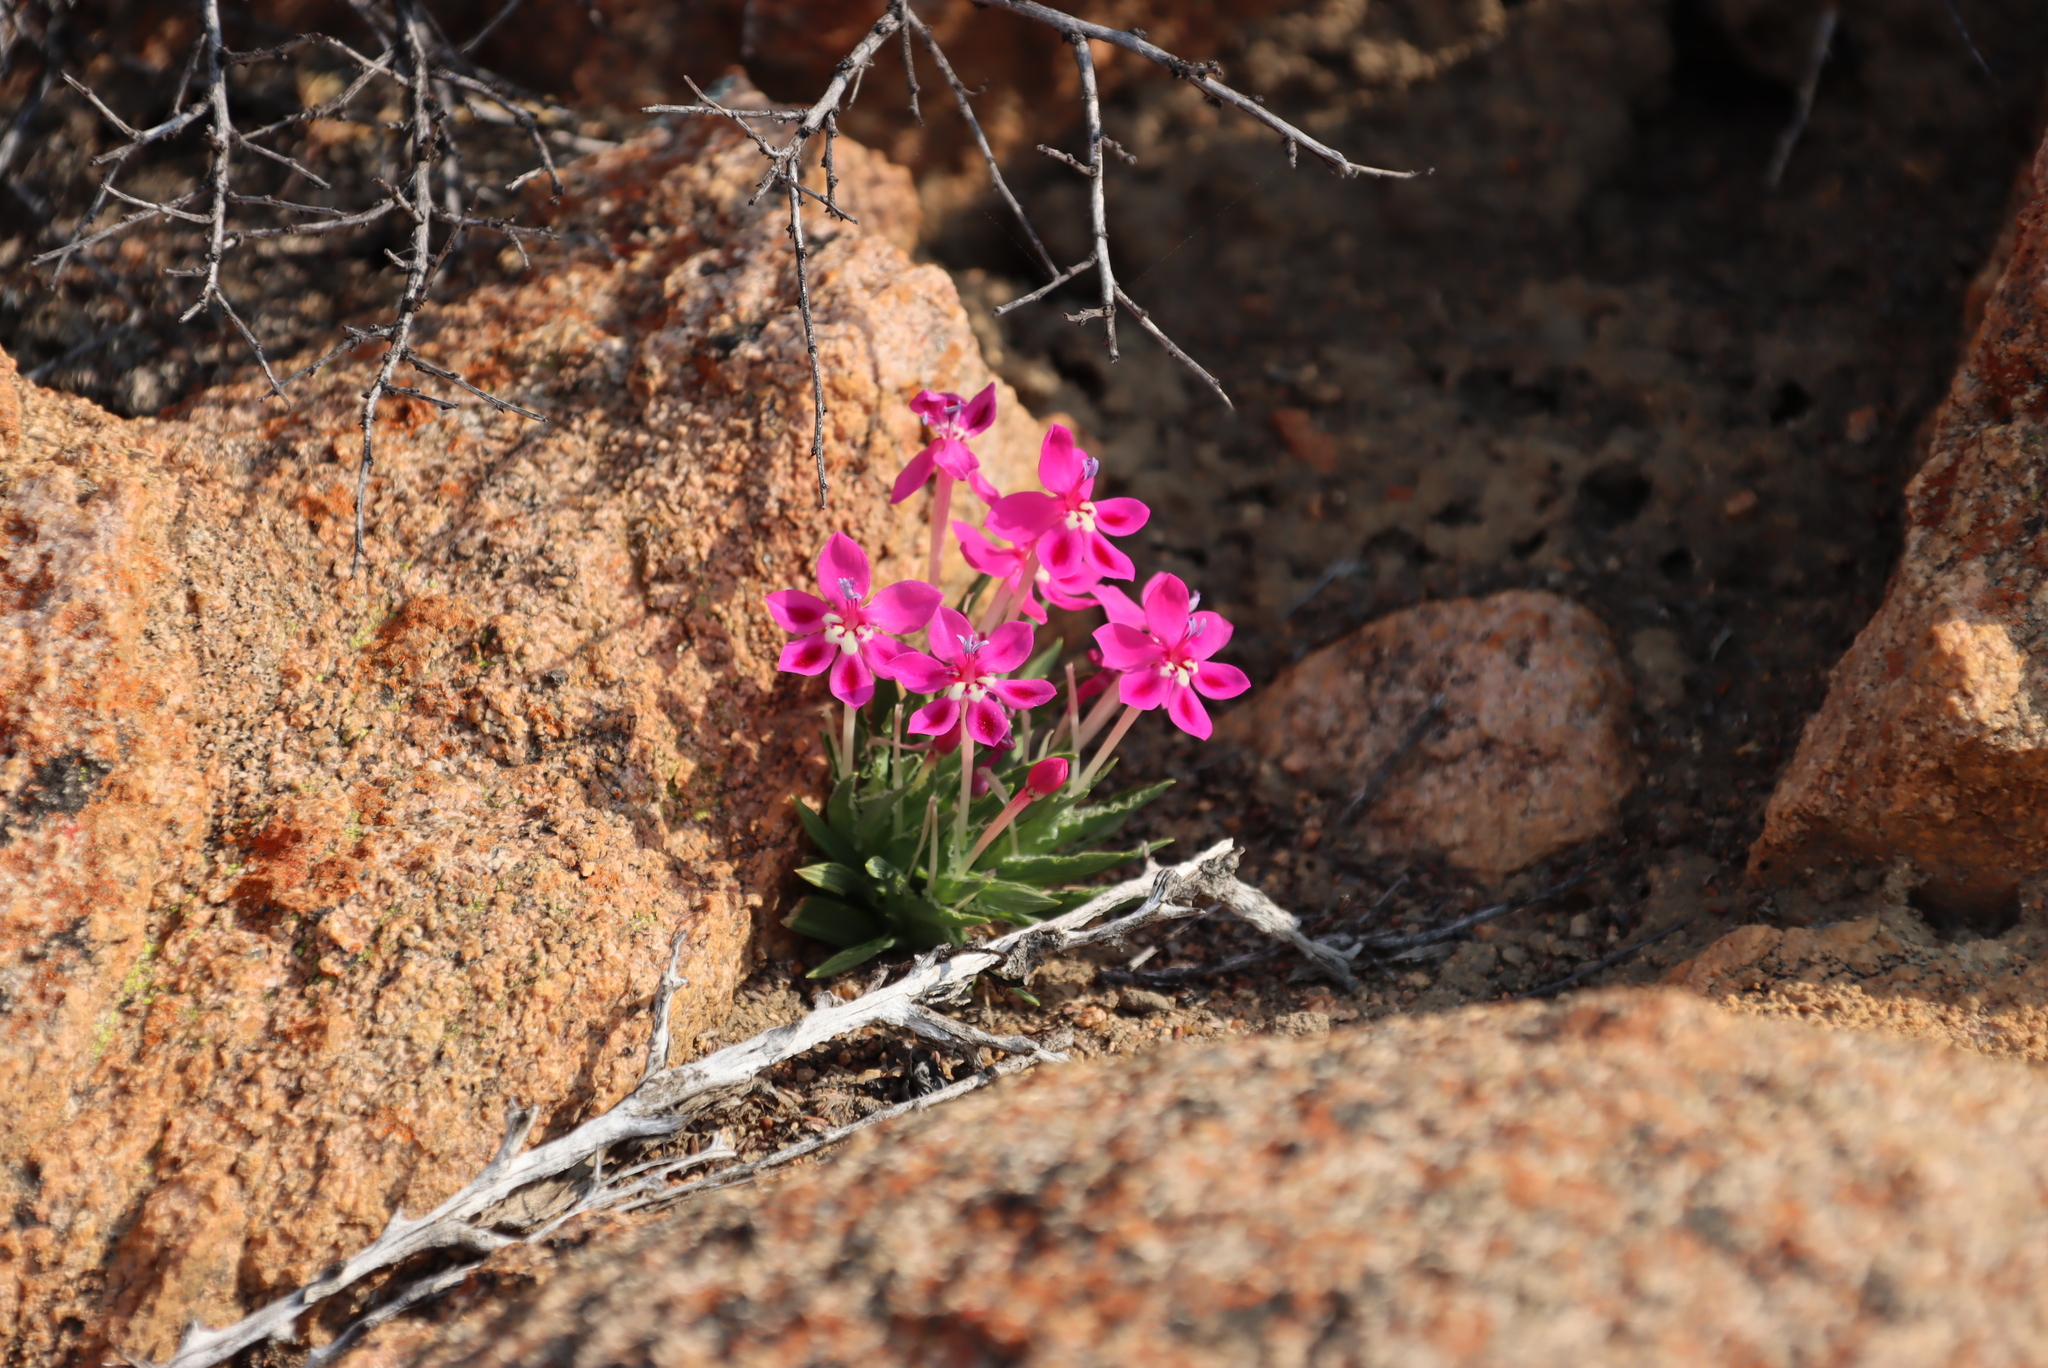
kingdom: Plantae
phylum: Tracheophyta
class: Liliopsida
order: Asparagales
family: Iridaceae
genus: Lapeirousia
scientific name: Lapeirousia silenoides
